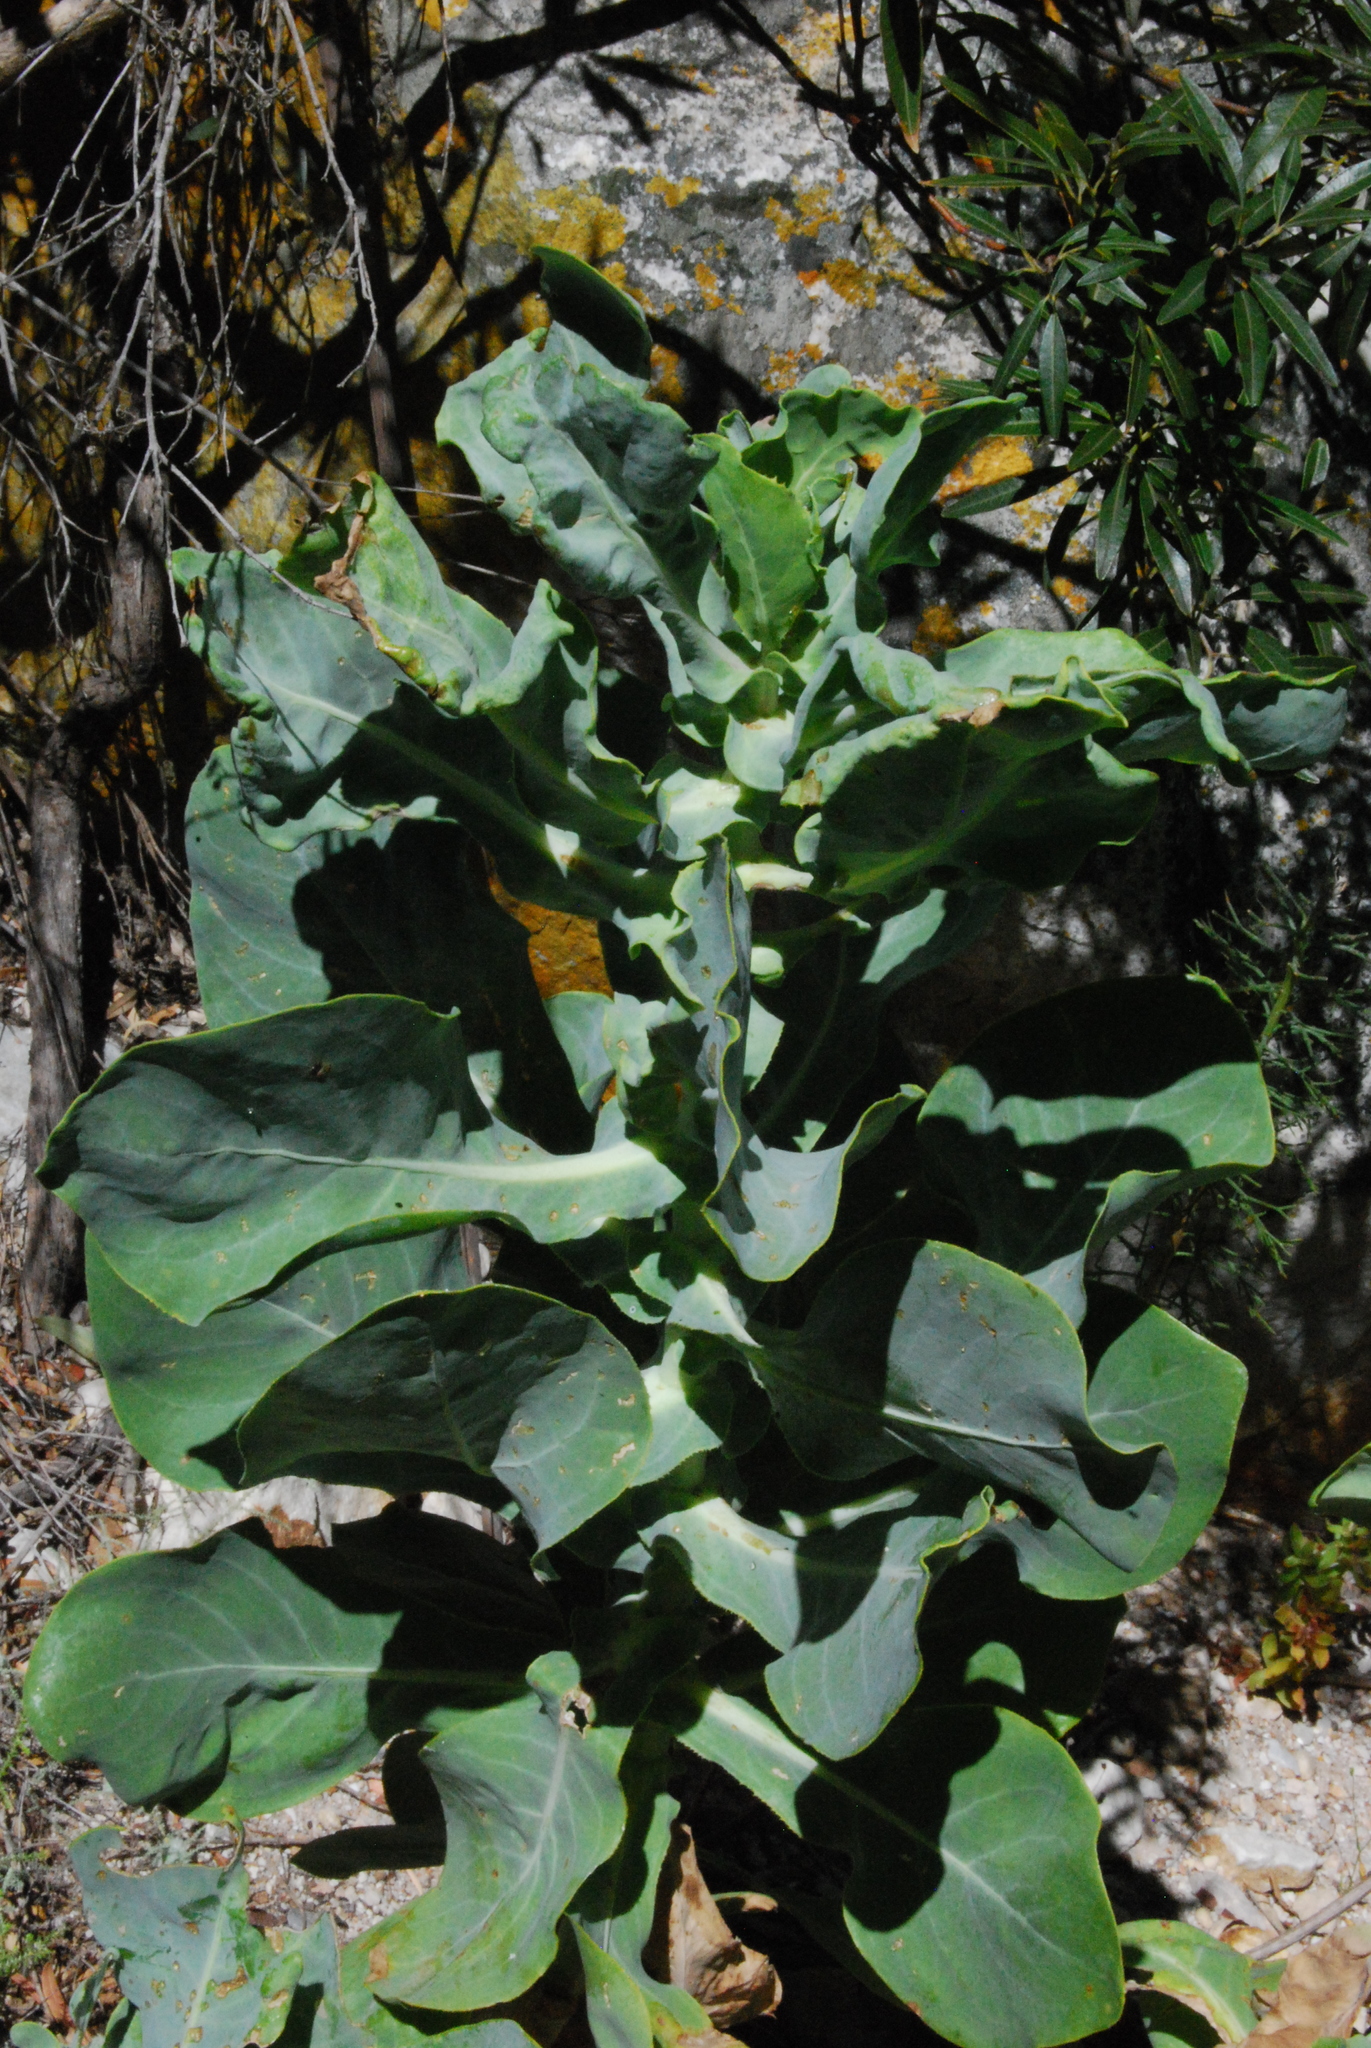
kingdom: Plantae
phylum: Tracheophyta
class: Magnoliopsida
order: Asterales
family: Asteraceae
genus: Othonna
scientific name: Othonna parviflora
